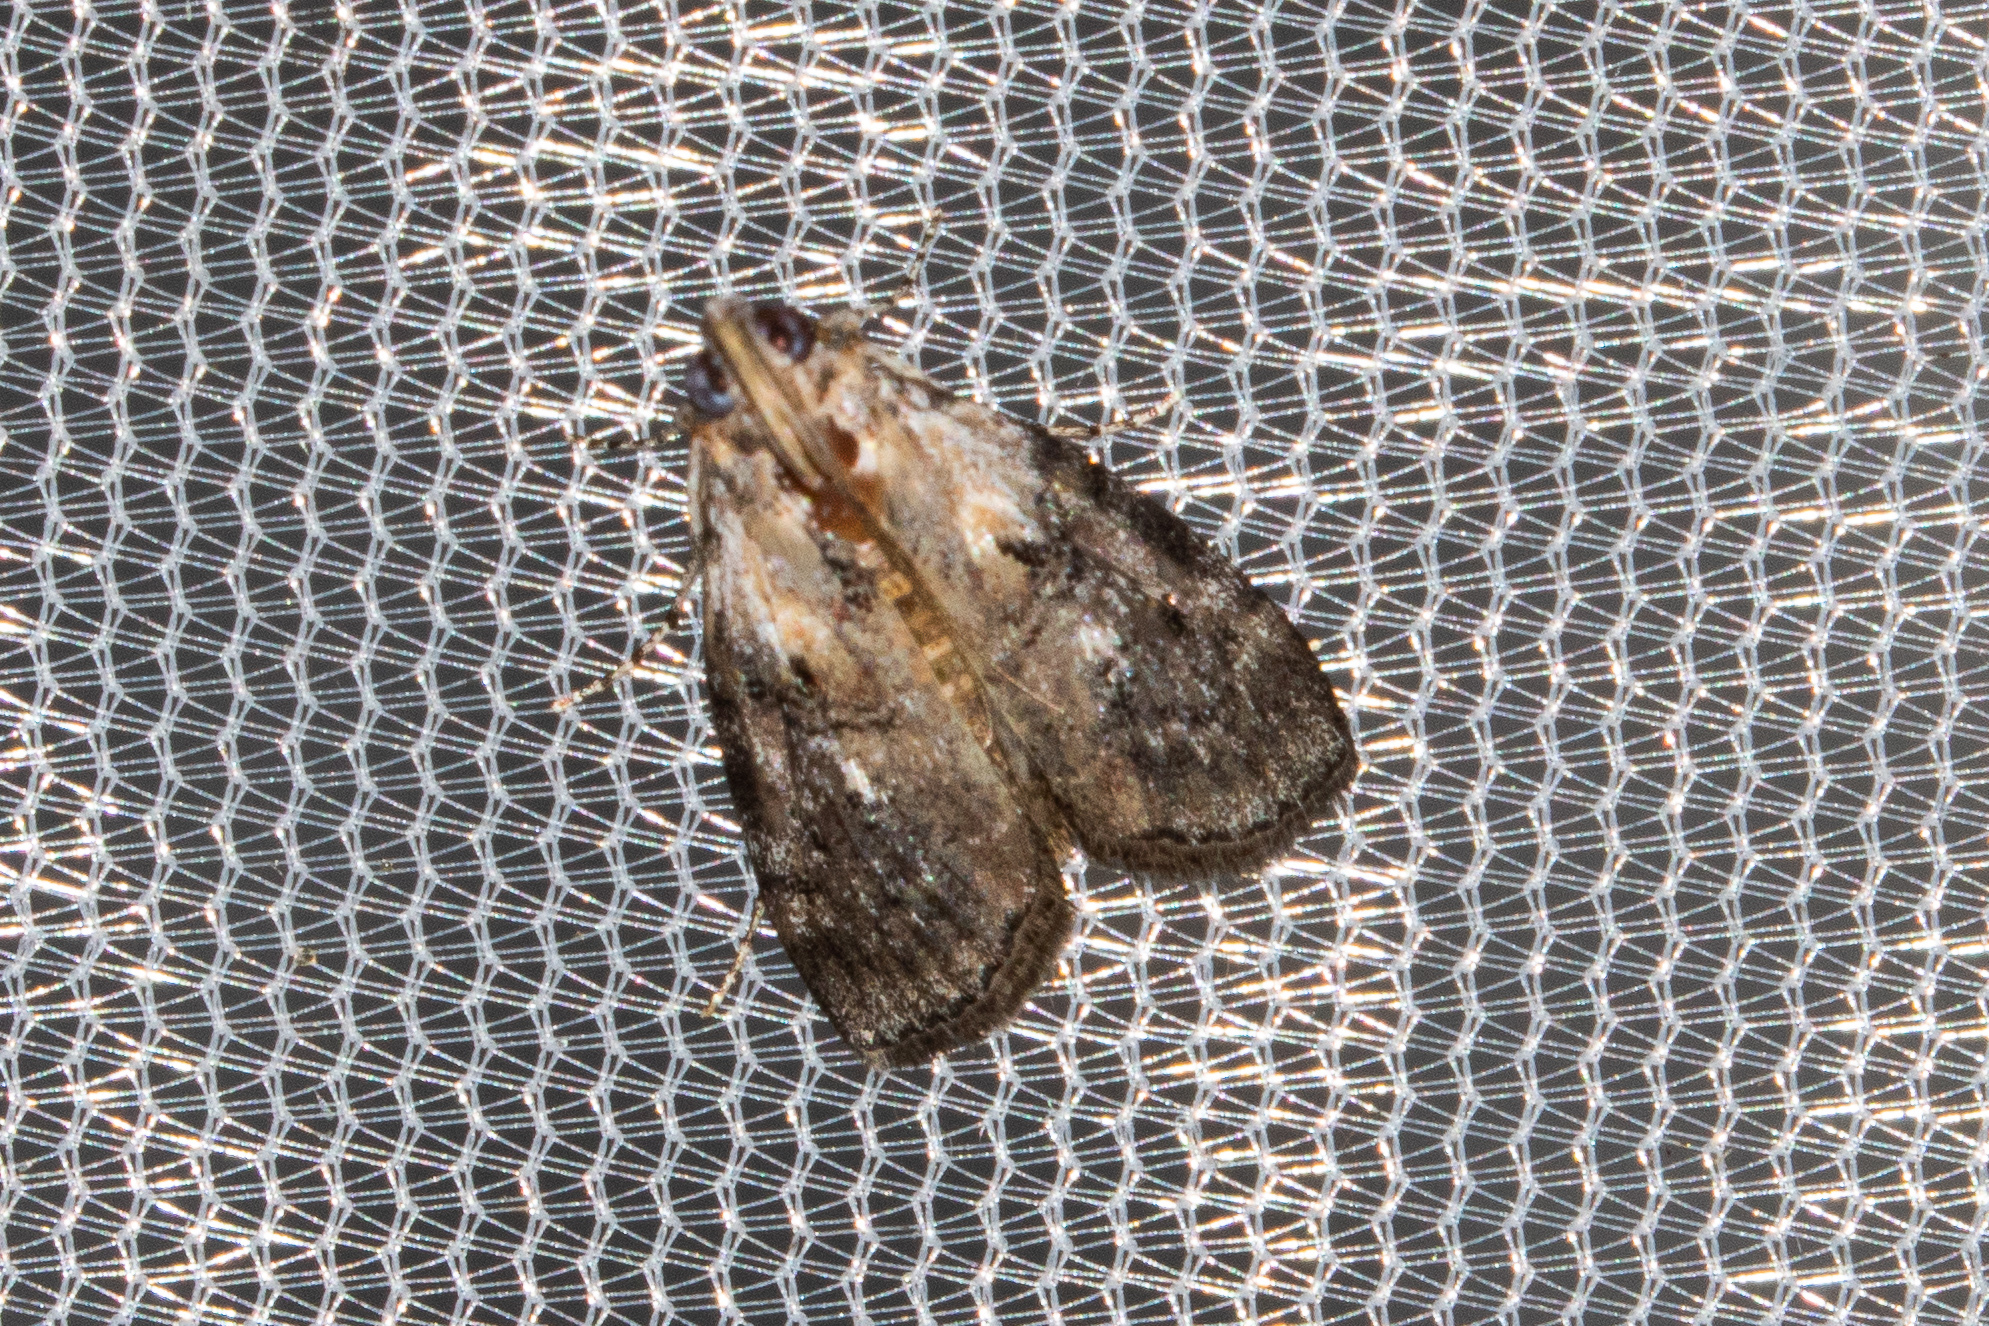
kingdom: Animalia
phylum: Arthropoda
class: Insecta
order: Lepidoptera
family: Pyralidae
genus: Pococera
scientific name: Pococera expandens
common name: Striped oak webworm moth
